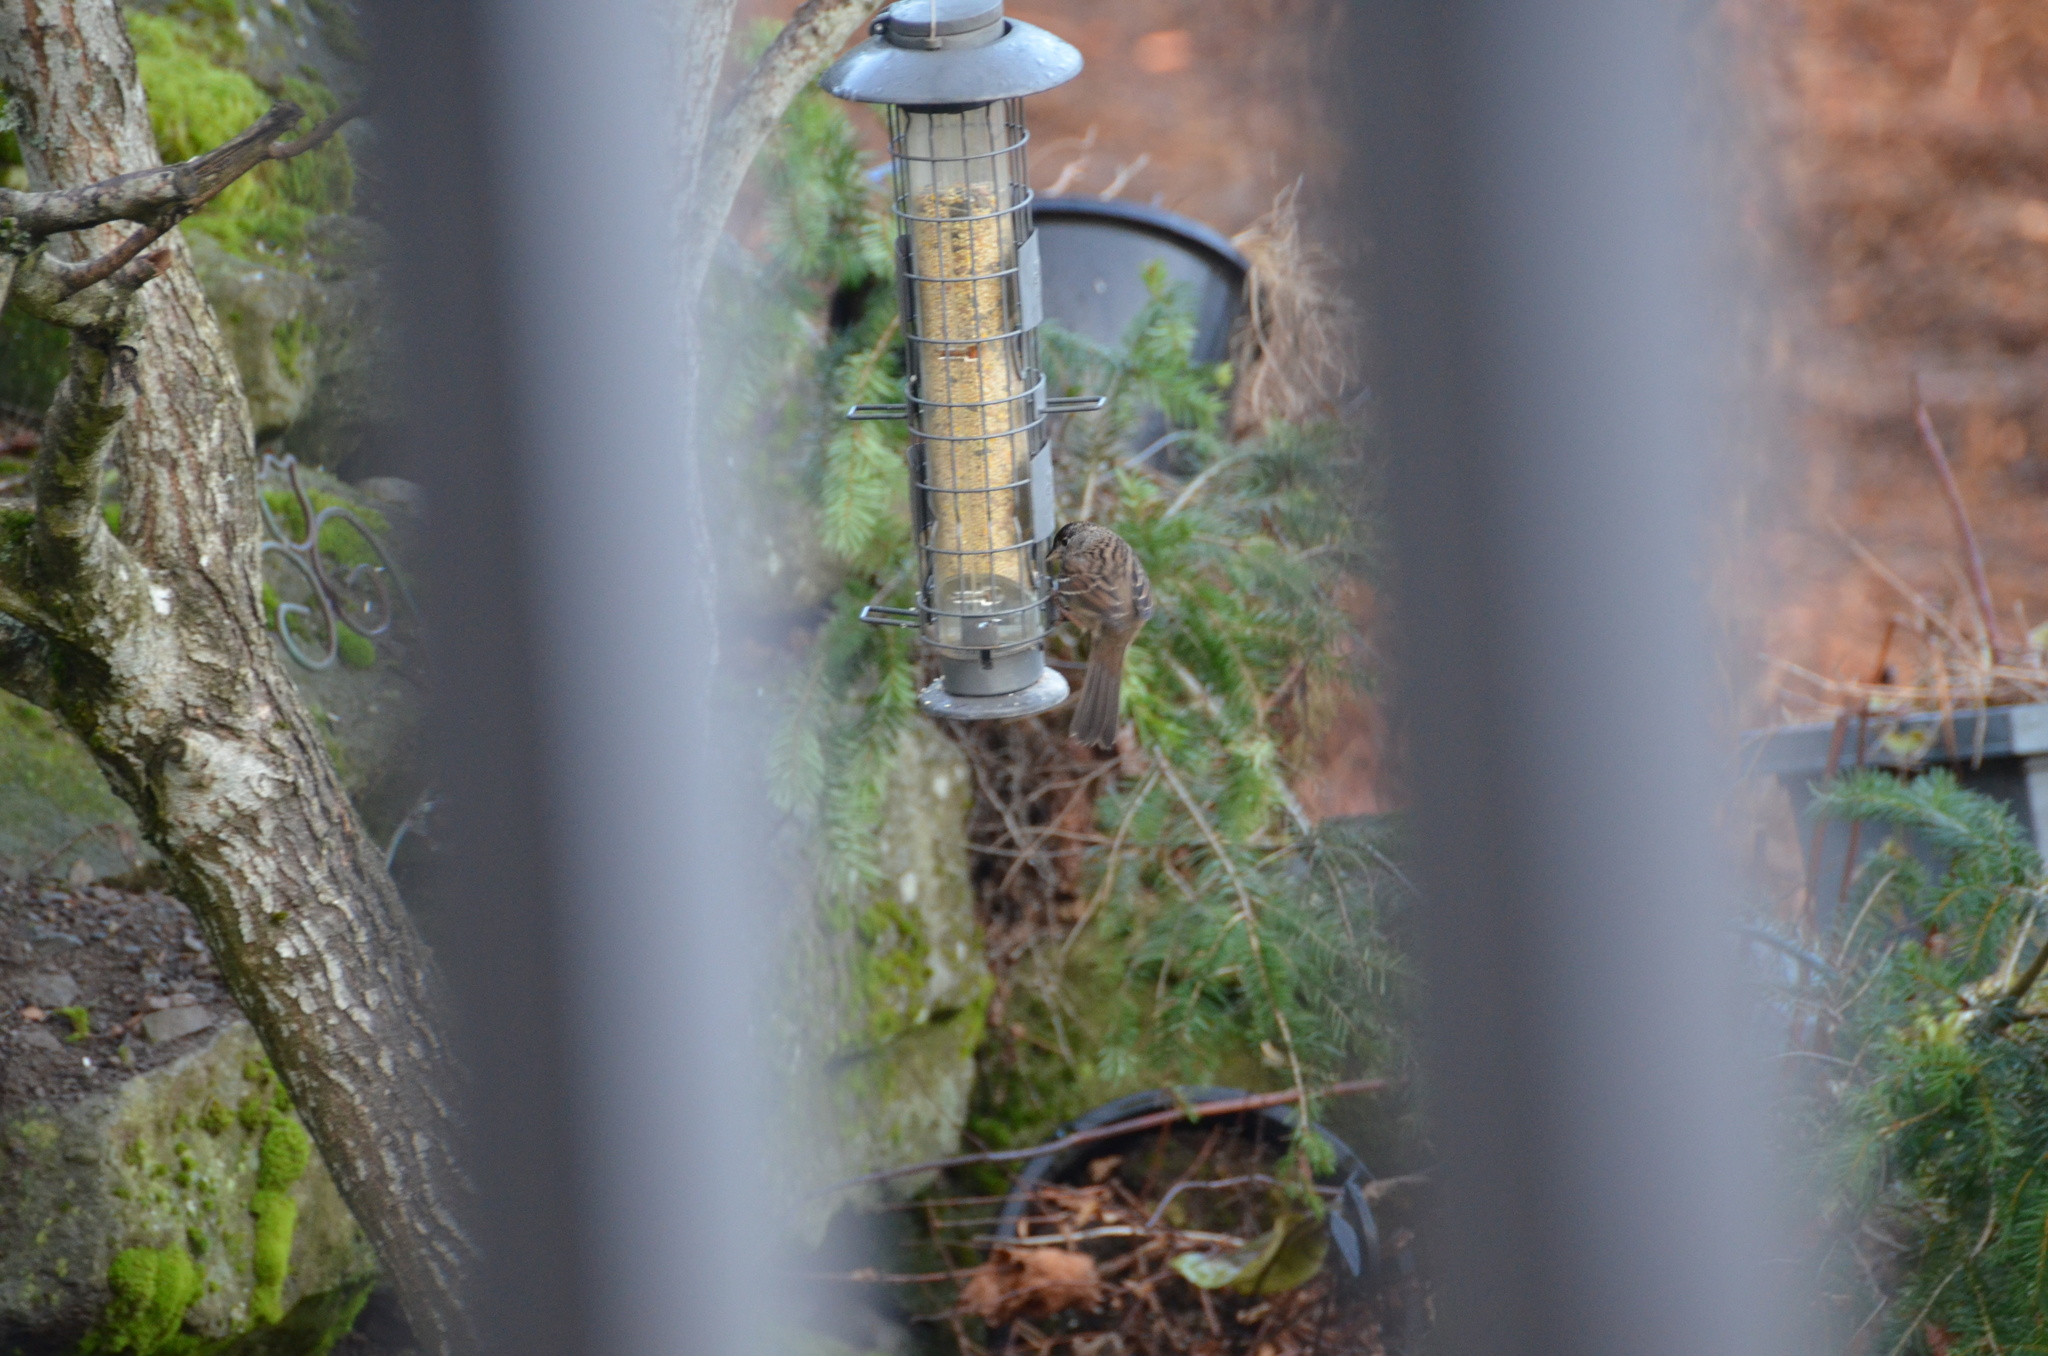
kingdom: Animalia
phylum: Chordata
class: Aves
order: Passeriformes
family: Passerellidae
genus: Zonotrichia
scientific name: Zonotrichia atricapilla
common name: Golden-crowned sparrow
